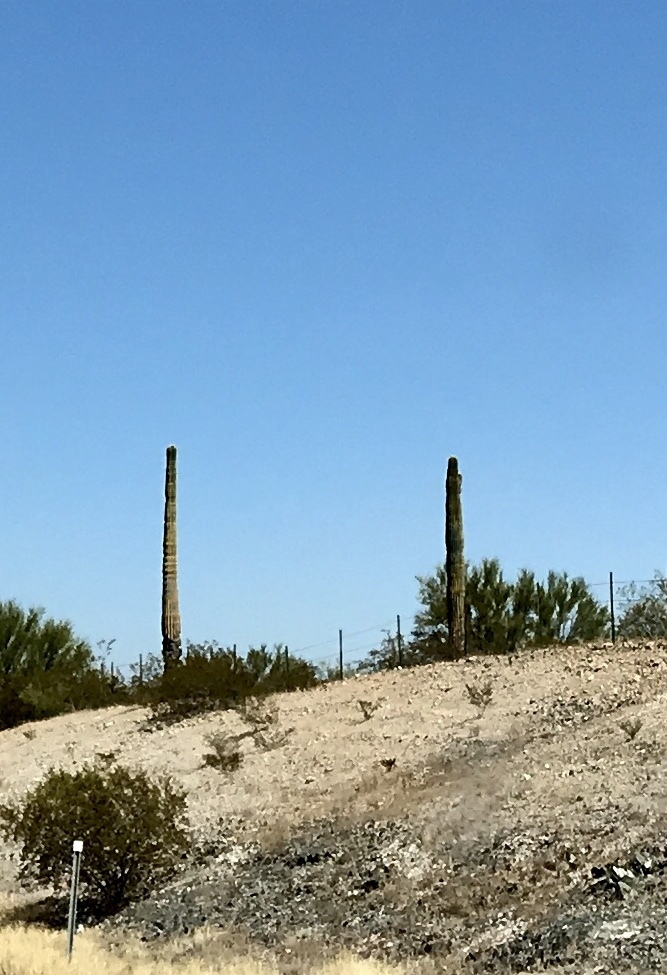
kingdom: Plantae
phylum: Tracheophyta
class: Magnoliopsida
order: Caryophyllales
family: Cactaceae
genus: Carnegiea
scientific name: Carnegiea gigantea
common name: Saguaro
